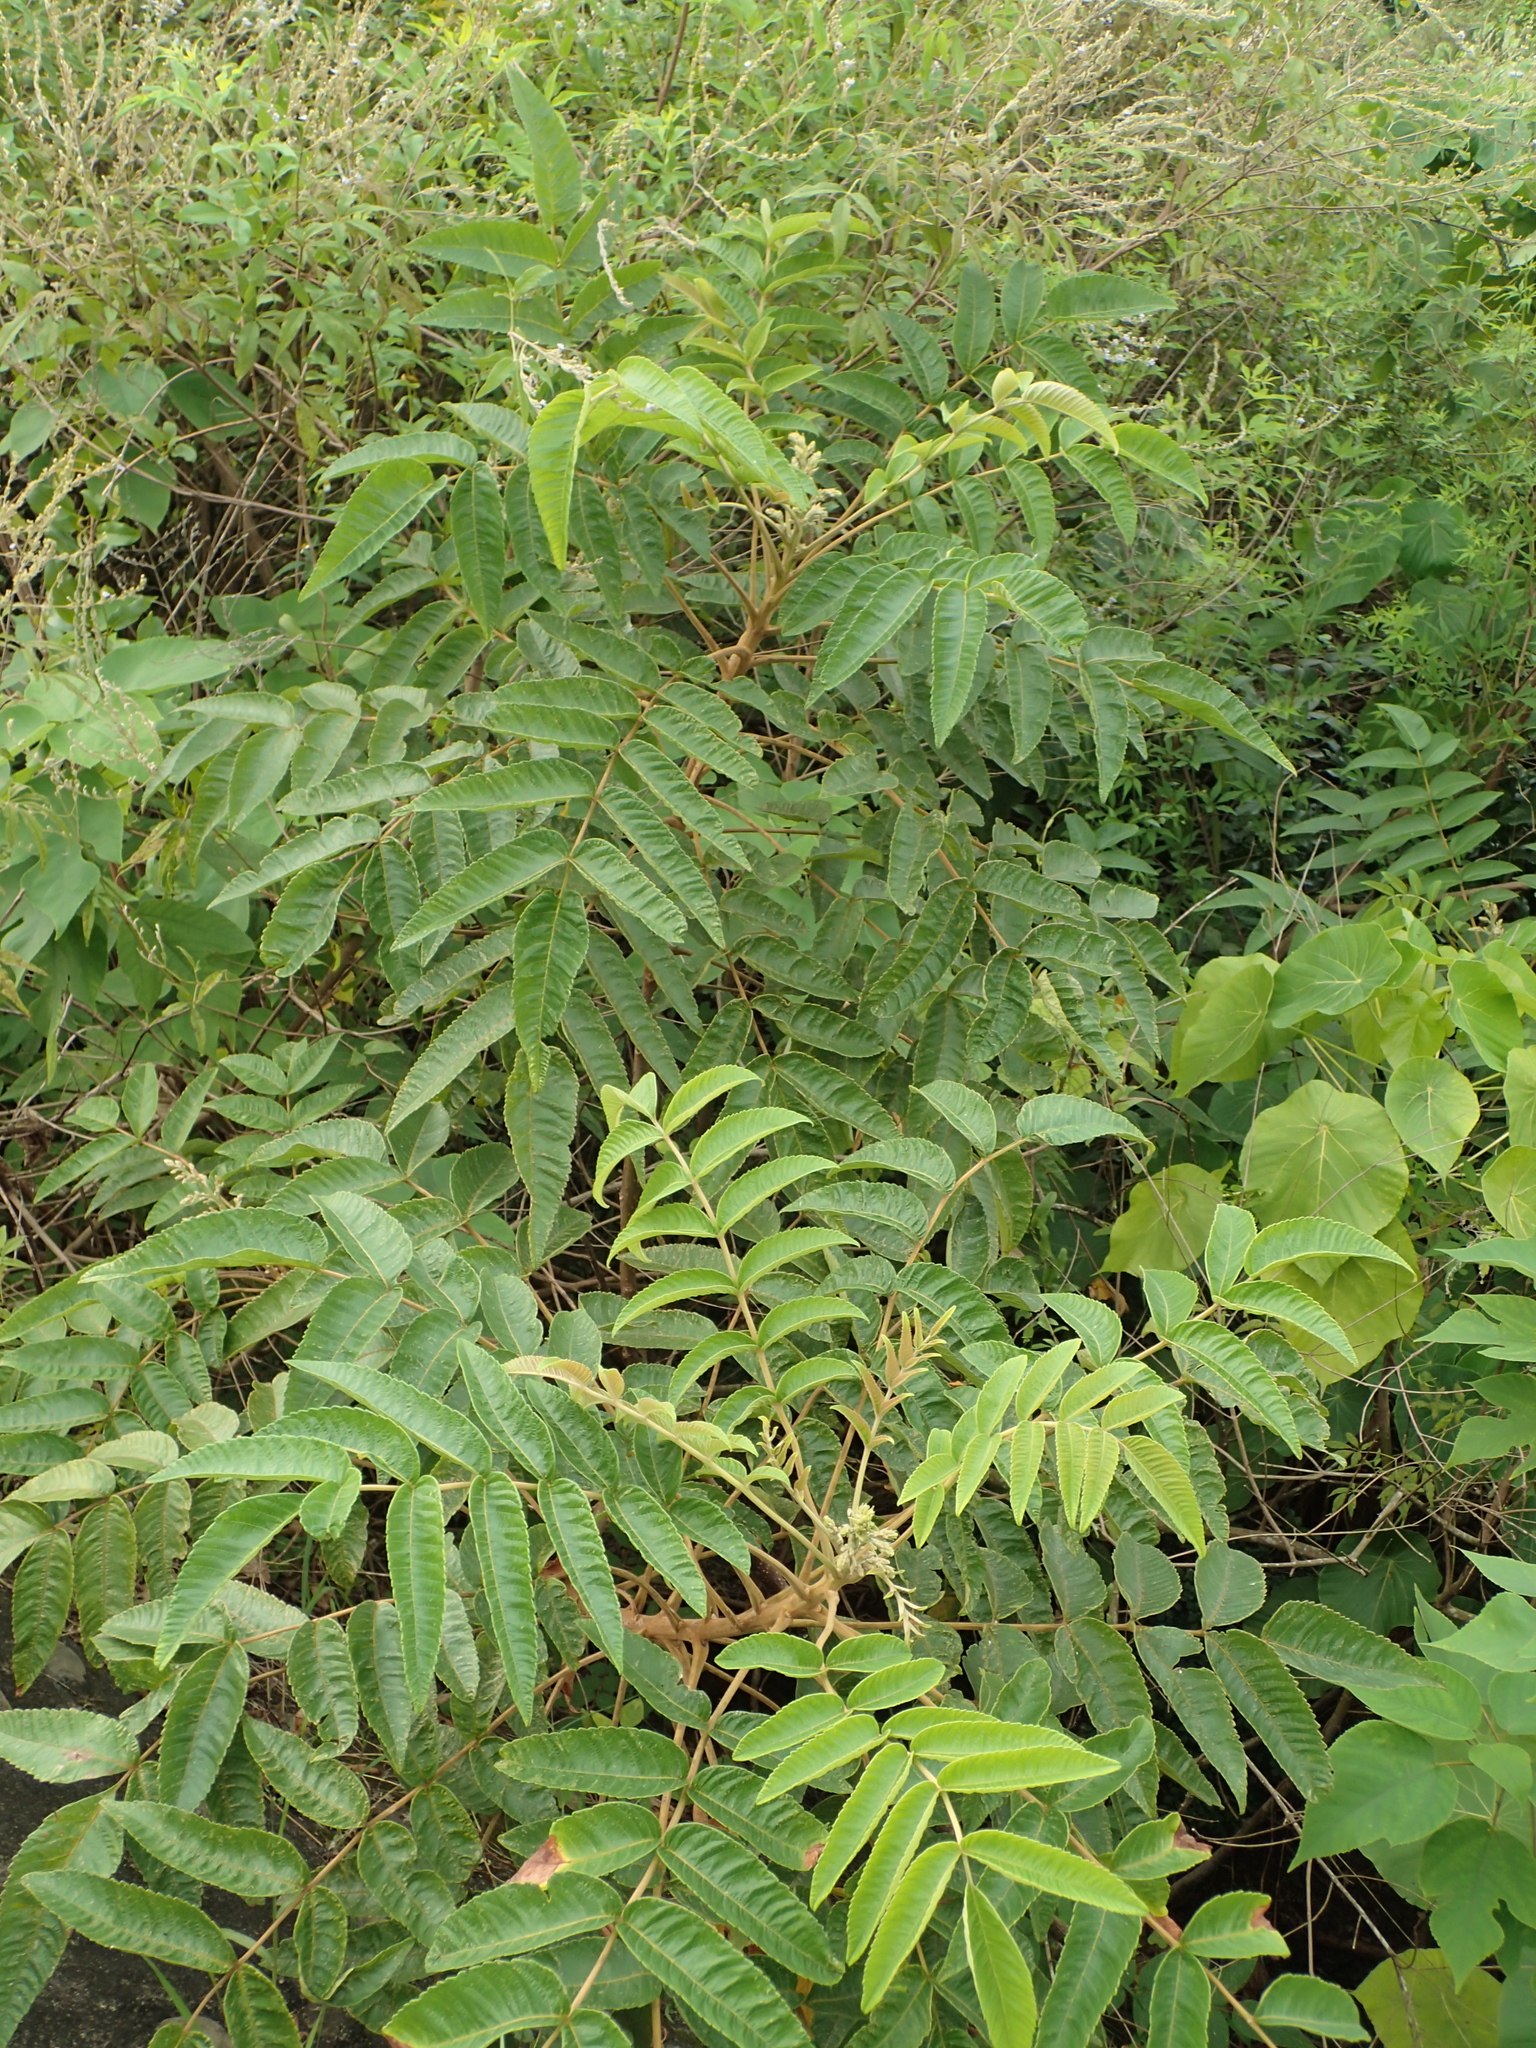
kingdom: Plantae
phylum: Tracheophyta
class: Magnoliopsida
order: Sapindales
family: Anacardiaceae
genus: Rhus
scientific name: Rhus chinensis
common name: Chinese gall
